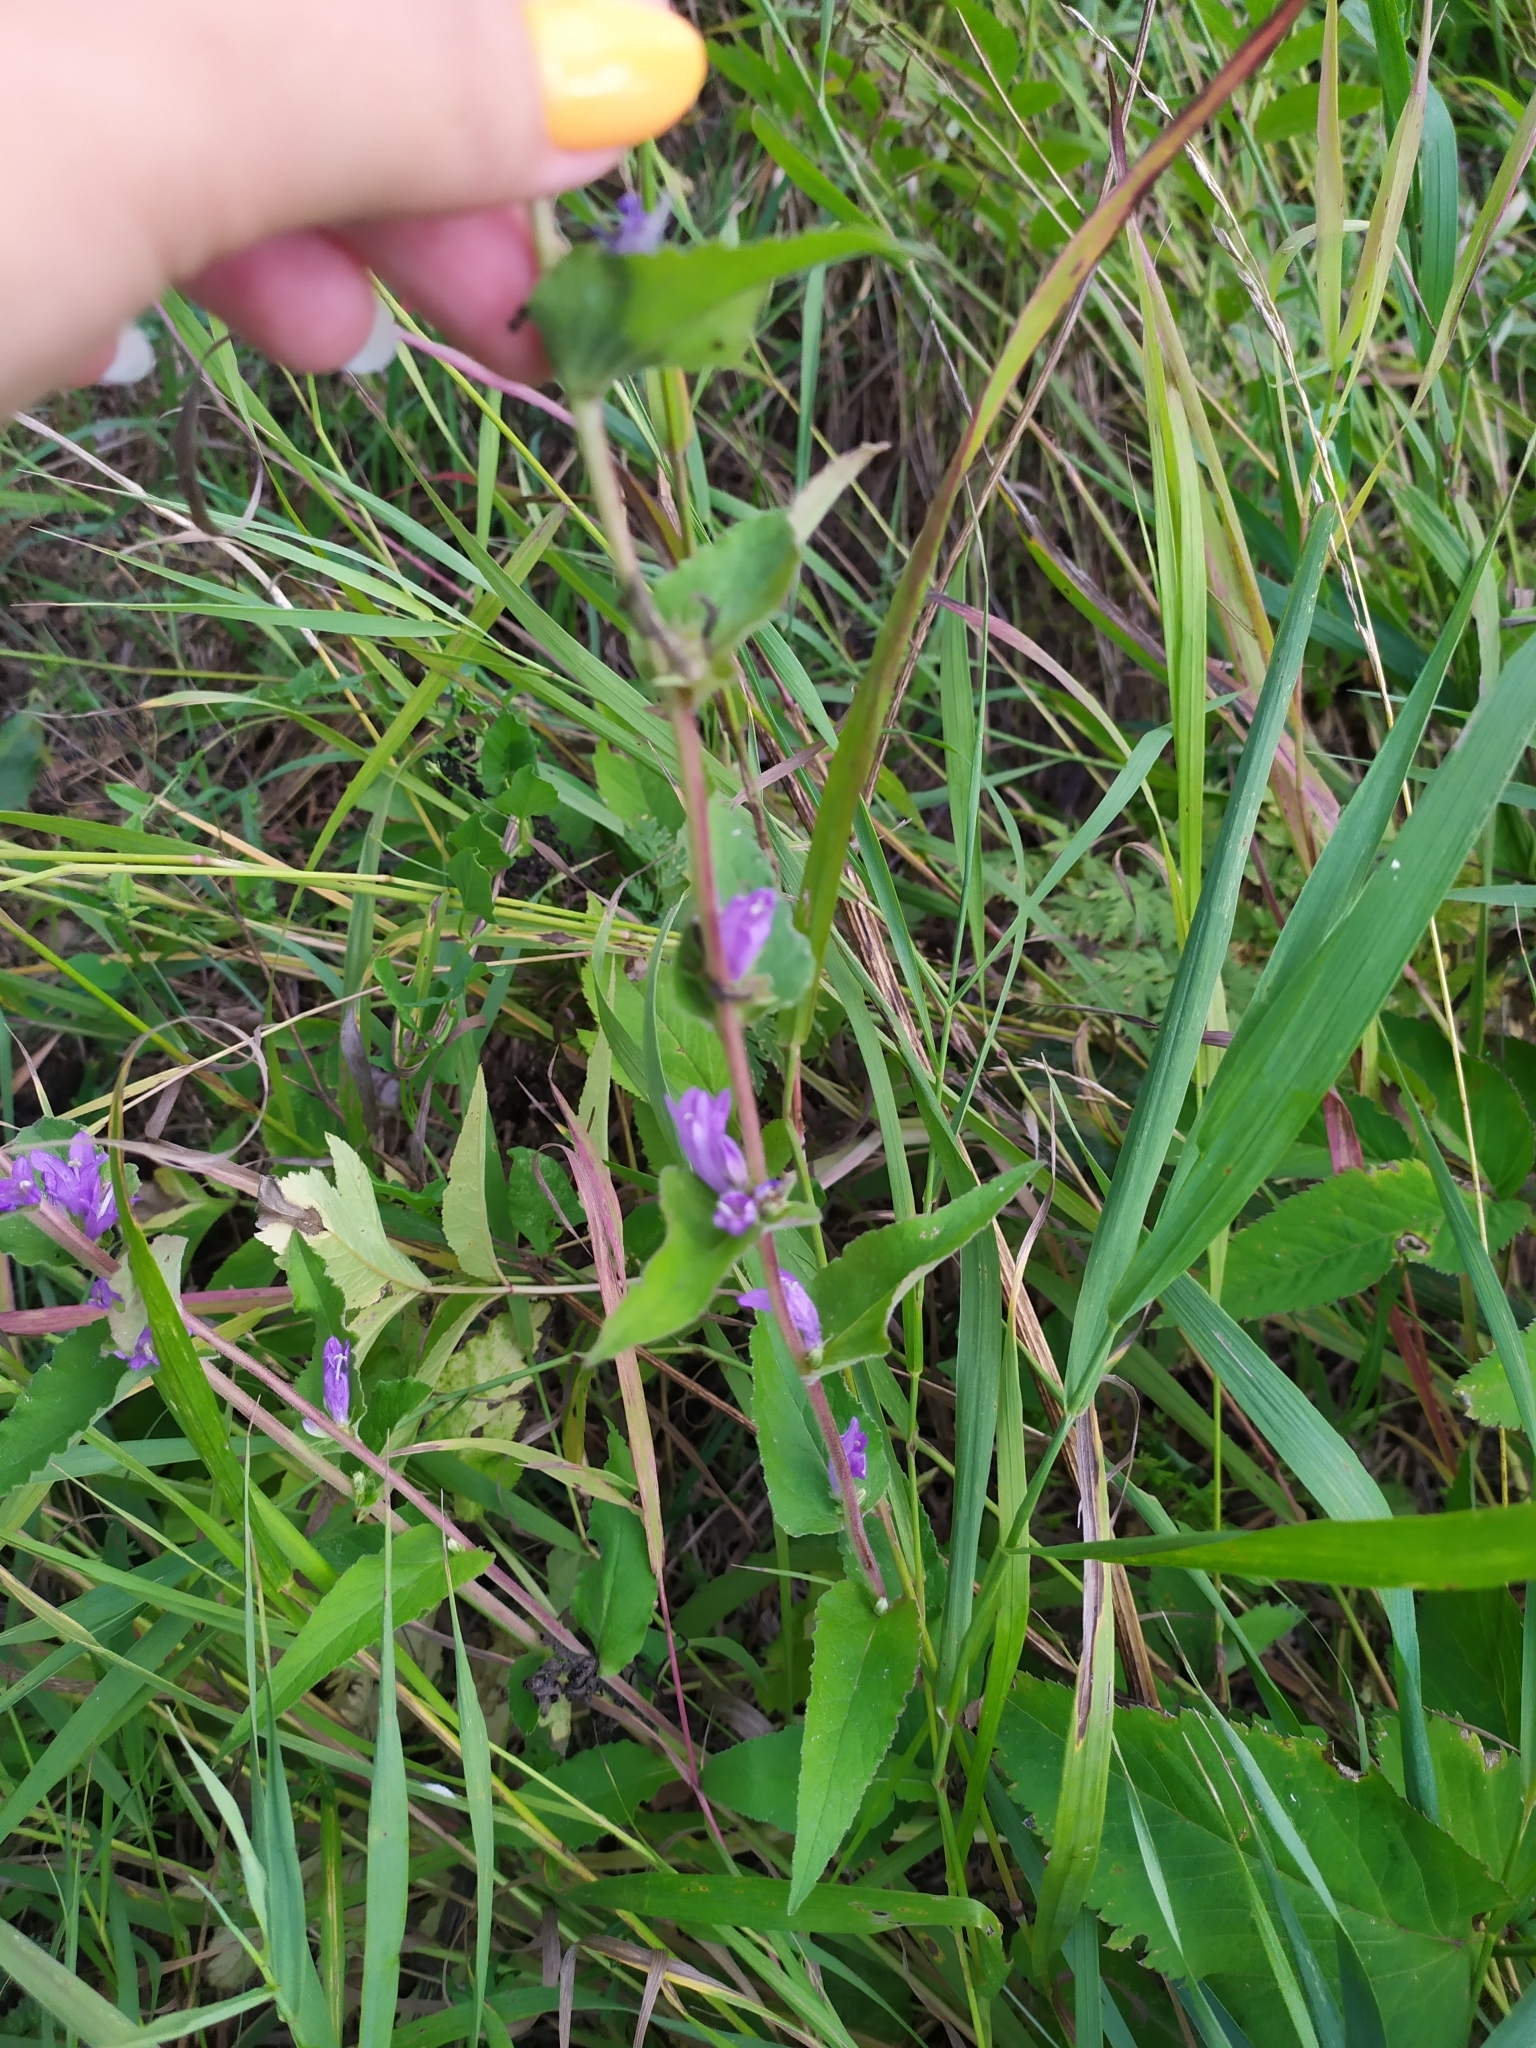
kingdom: Plantae
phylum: Tracheophyta
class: Magnoliopsida
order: Asterales
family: Campanulaceae
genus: Campanula
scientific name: Campanula glomerata
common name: Clustered bellflower
